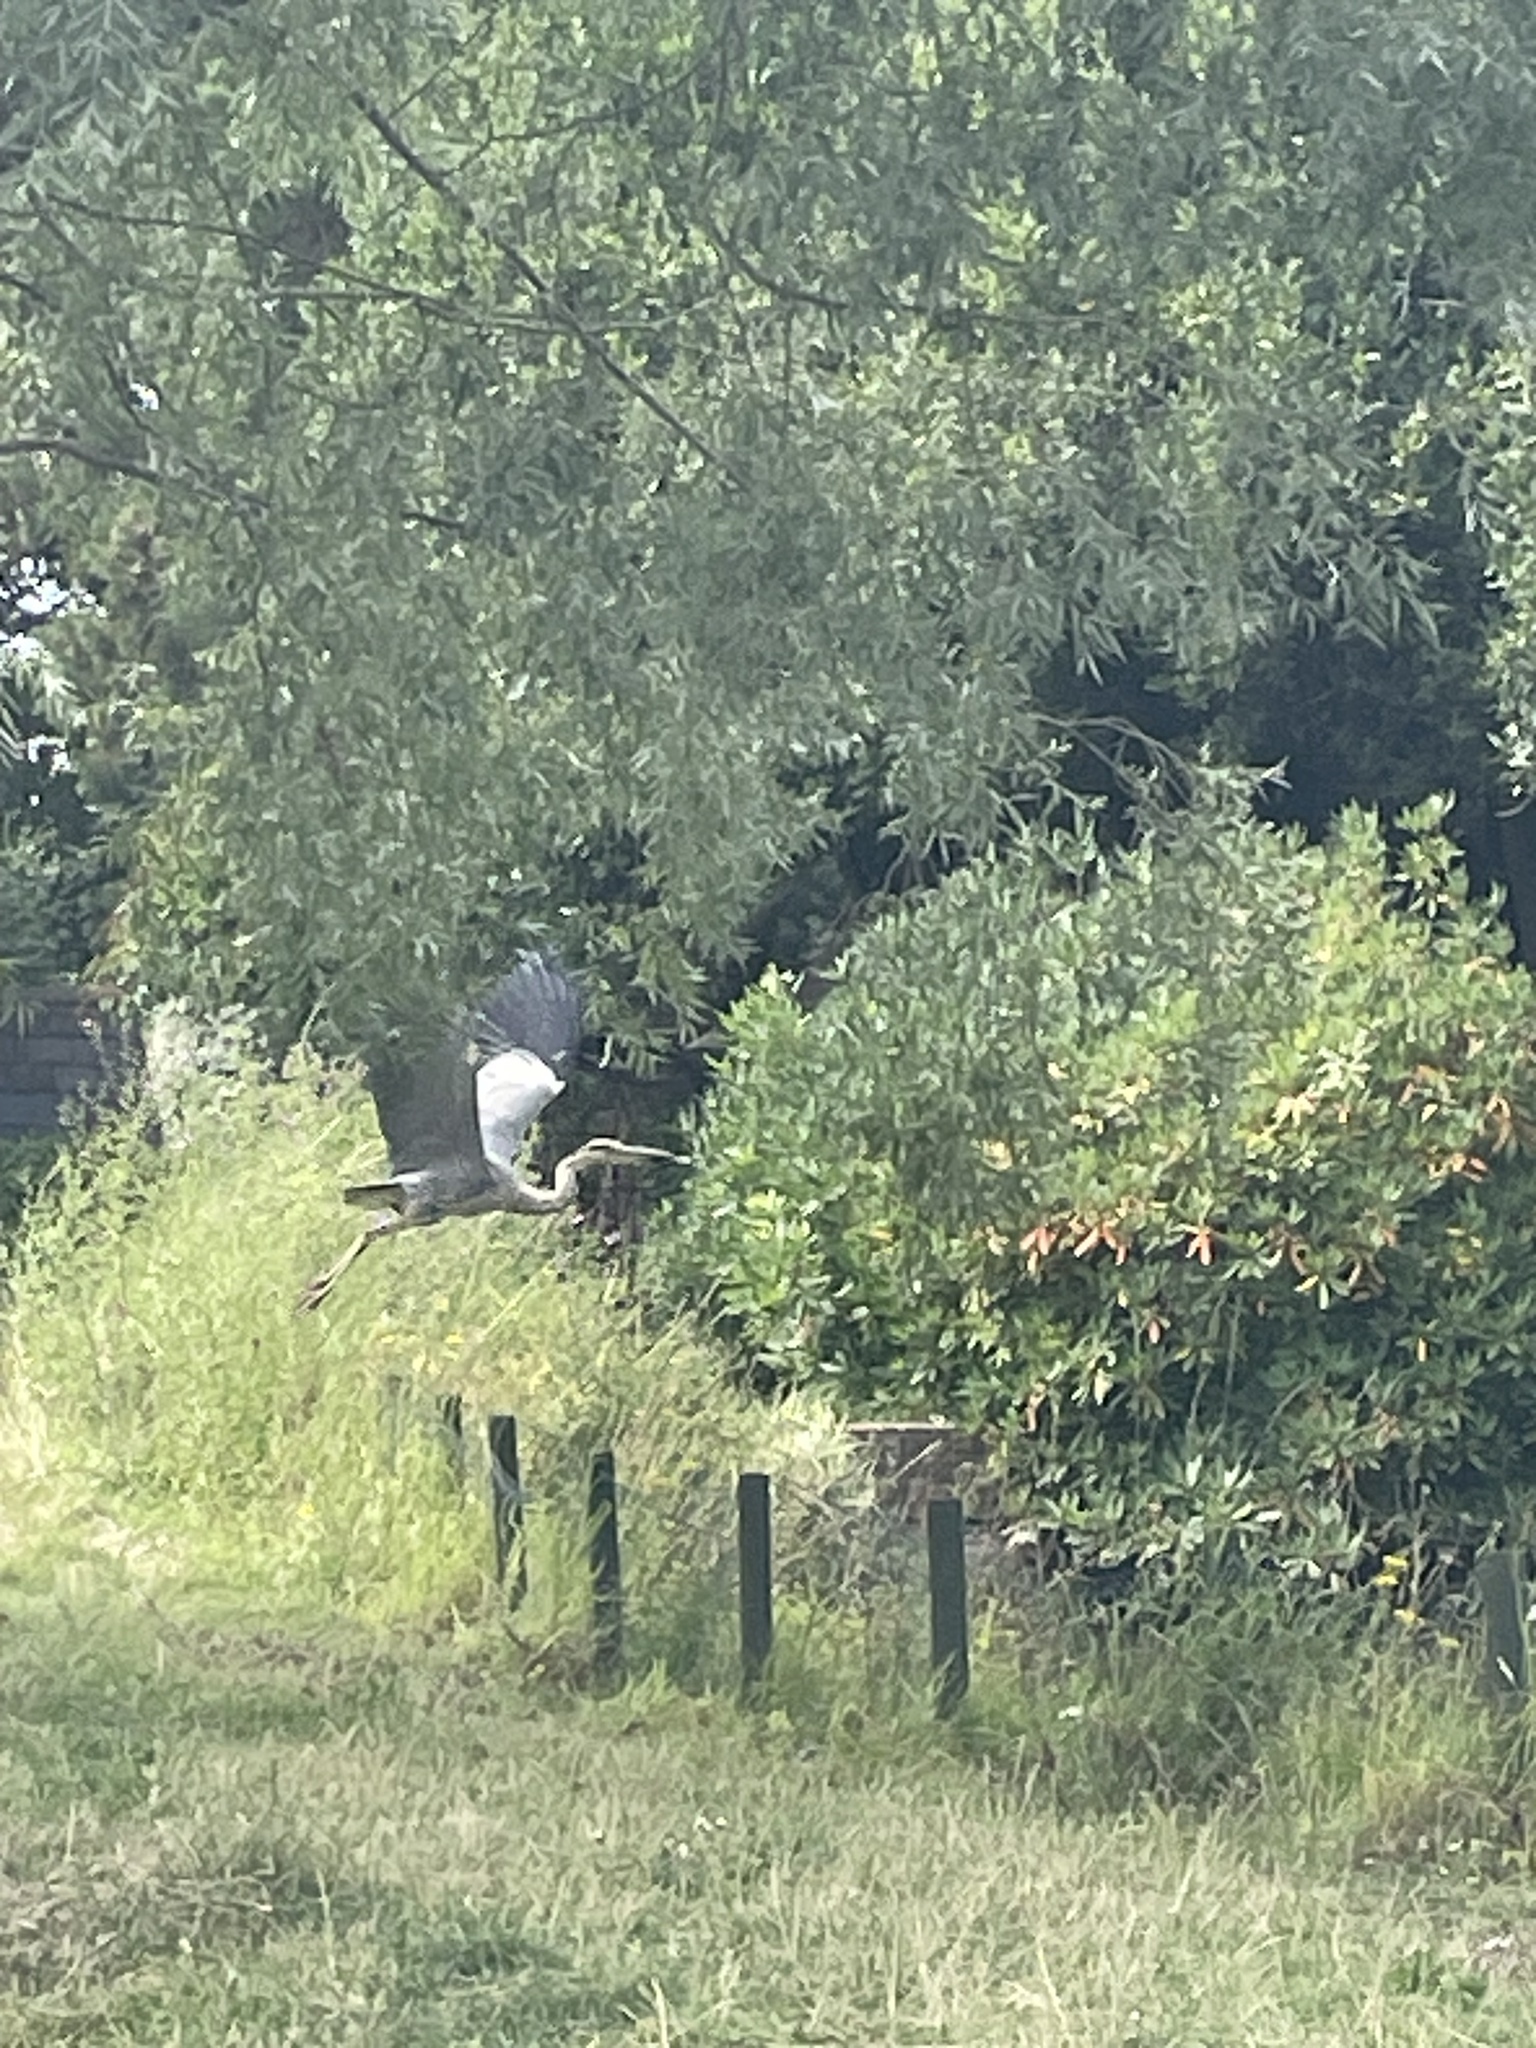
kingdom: Animalia
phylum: Chordata
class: Aves
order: Pelecaniformes
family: Ardeidae
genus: Ardea
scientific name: Ardea cinerea
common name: Grey heron
